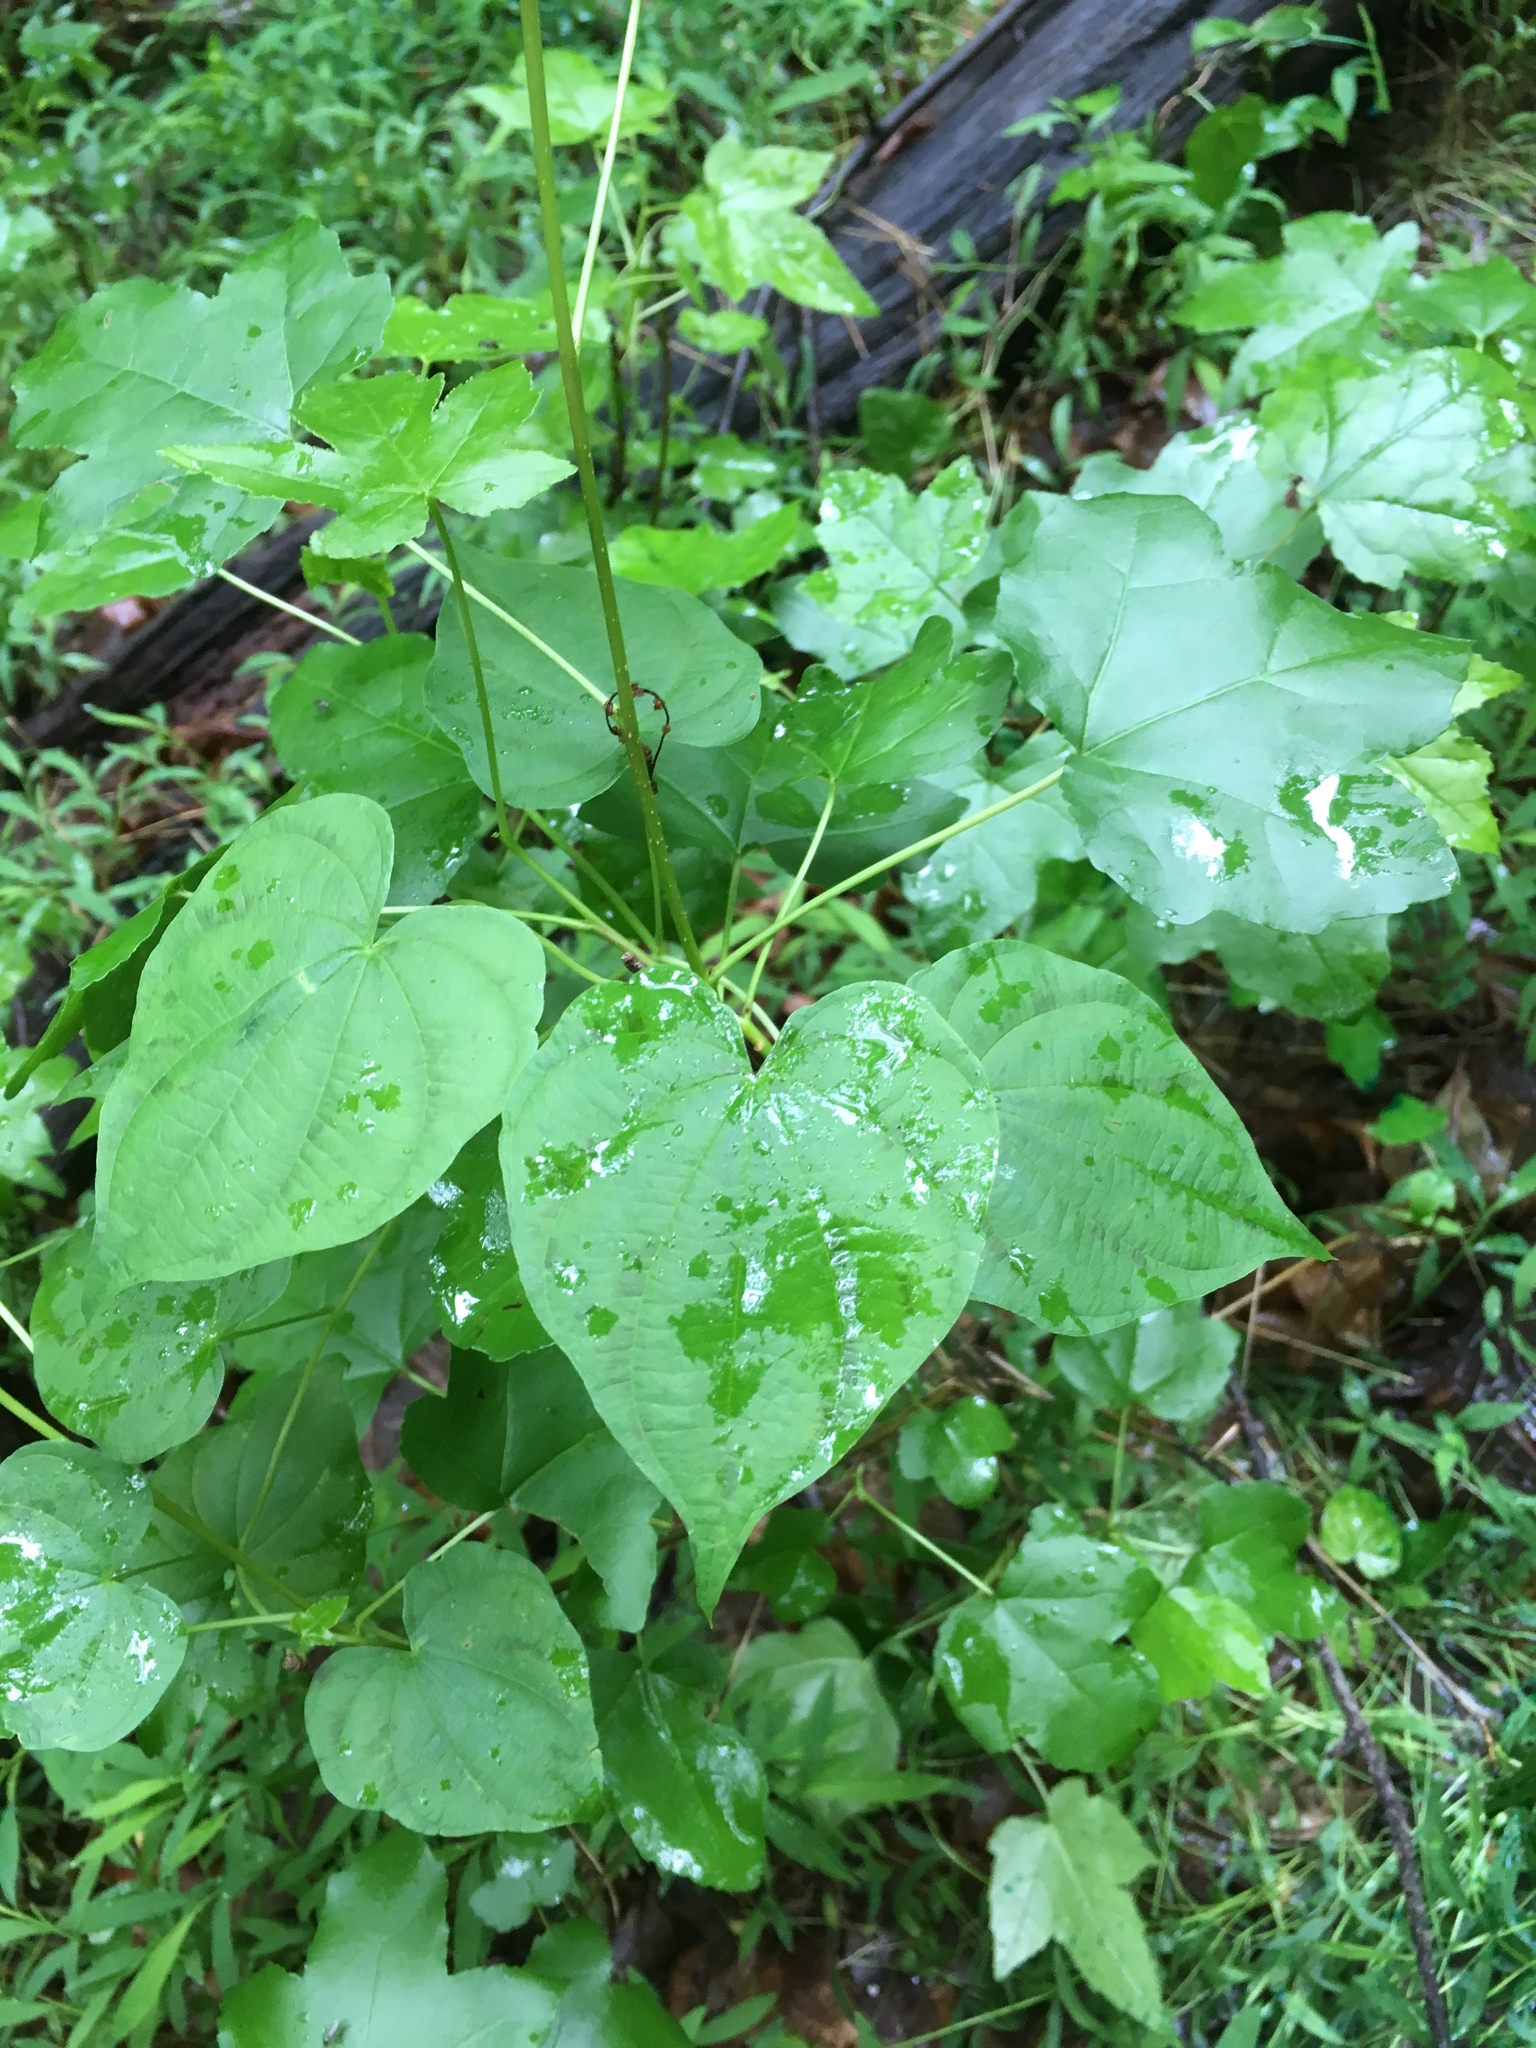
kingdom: Plantae
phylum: Tracheophyta
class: Liliopsida
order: Dioscoreales
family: Dioscoreaceae
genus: Dioscorea
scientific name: Dioscorea villosa
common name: Wild yam
